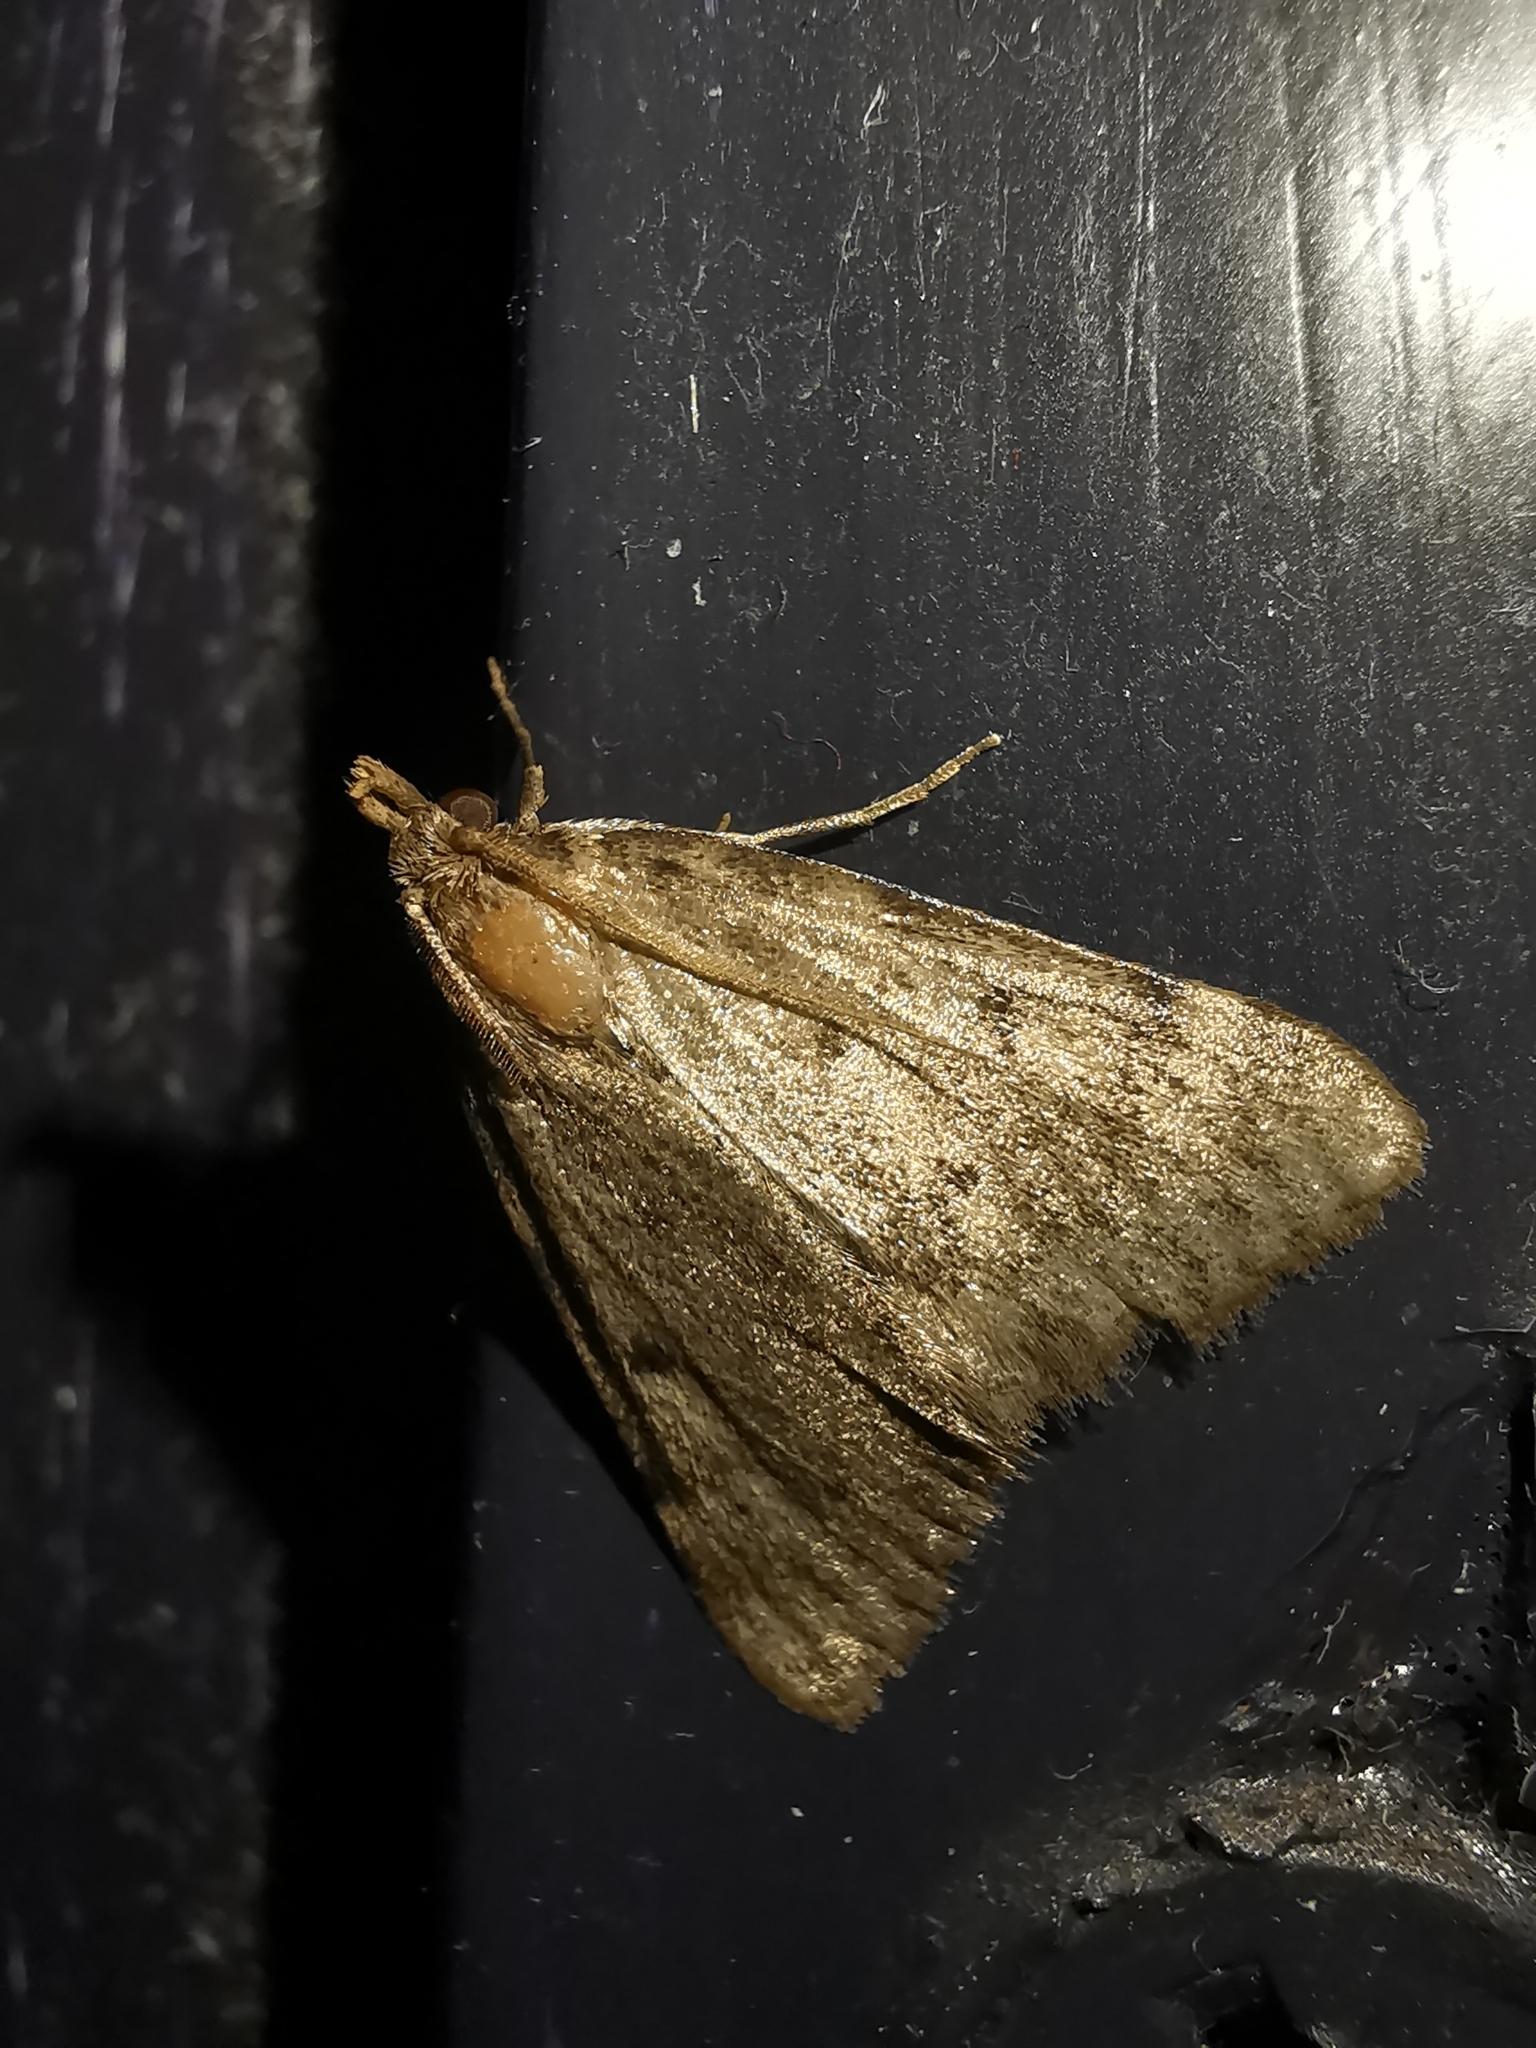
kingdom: Animalia
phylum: Arthropoda
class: Insecta
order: Lepidoptera
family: Pyralidae
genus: Aglossa
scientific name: Aglossa pinguinalis
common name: Large tabby
